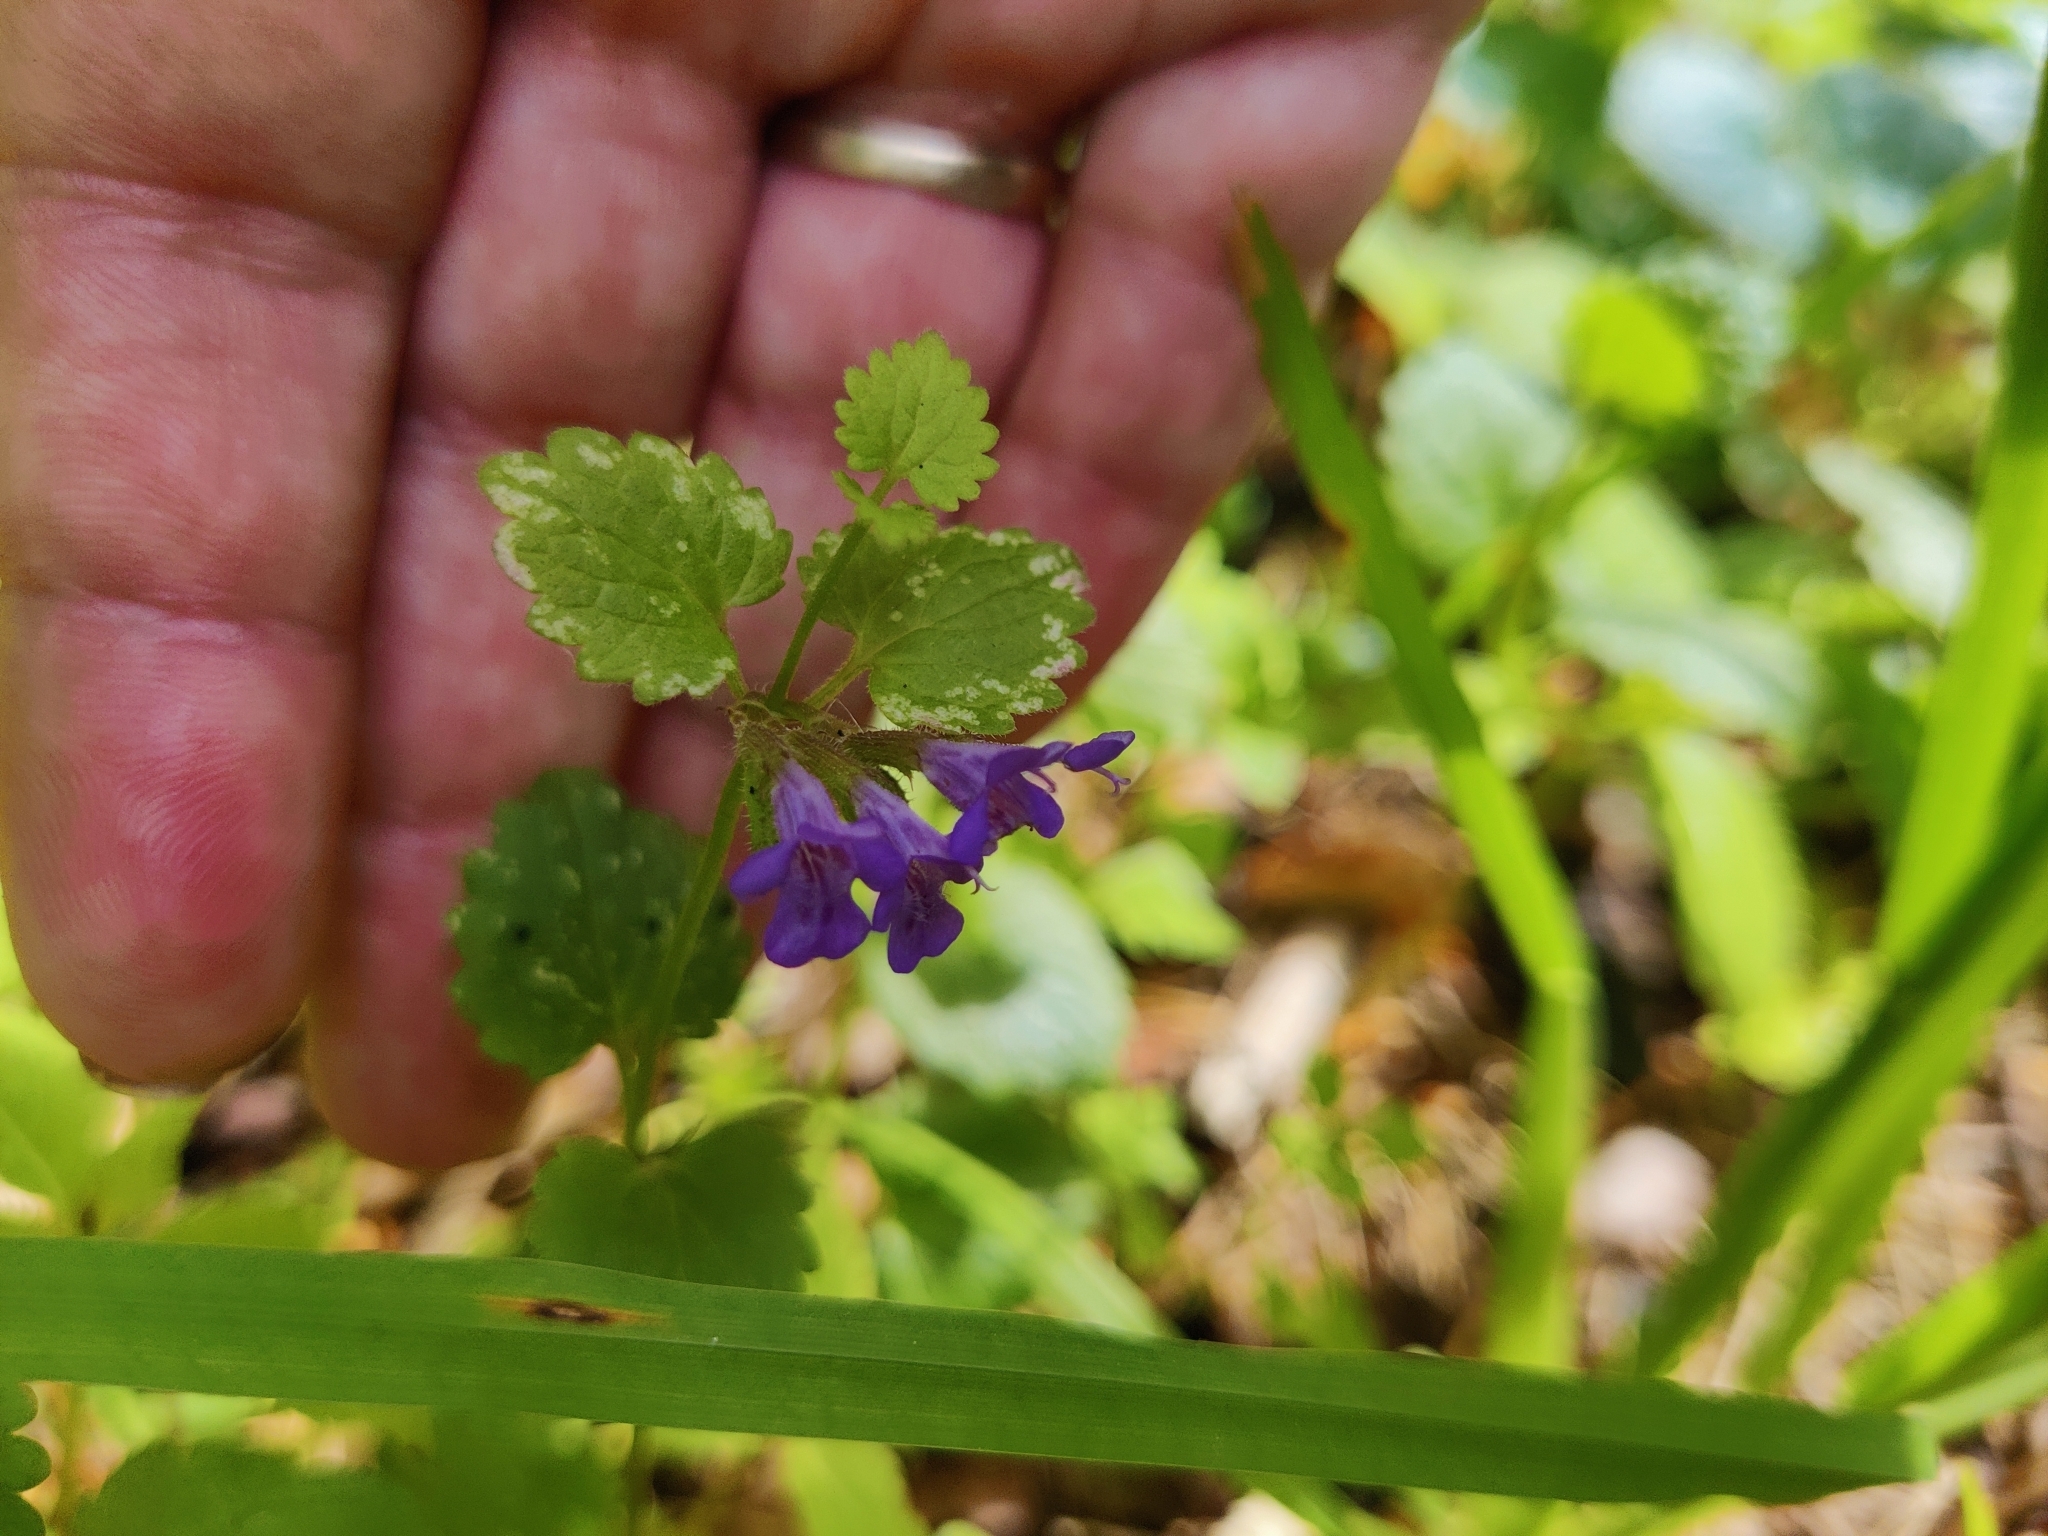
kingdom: Plantae
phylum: Tracheophyta
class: Magnoliopsida
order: Lamiales
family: Lamiaceae
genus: Glechoma
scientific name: Glechoma hederacea
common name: Ground ivy
